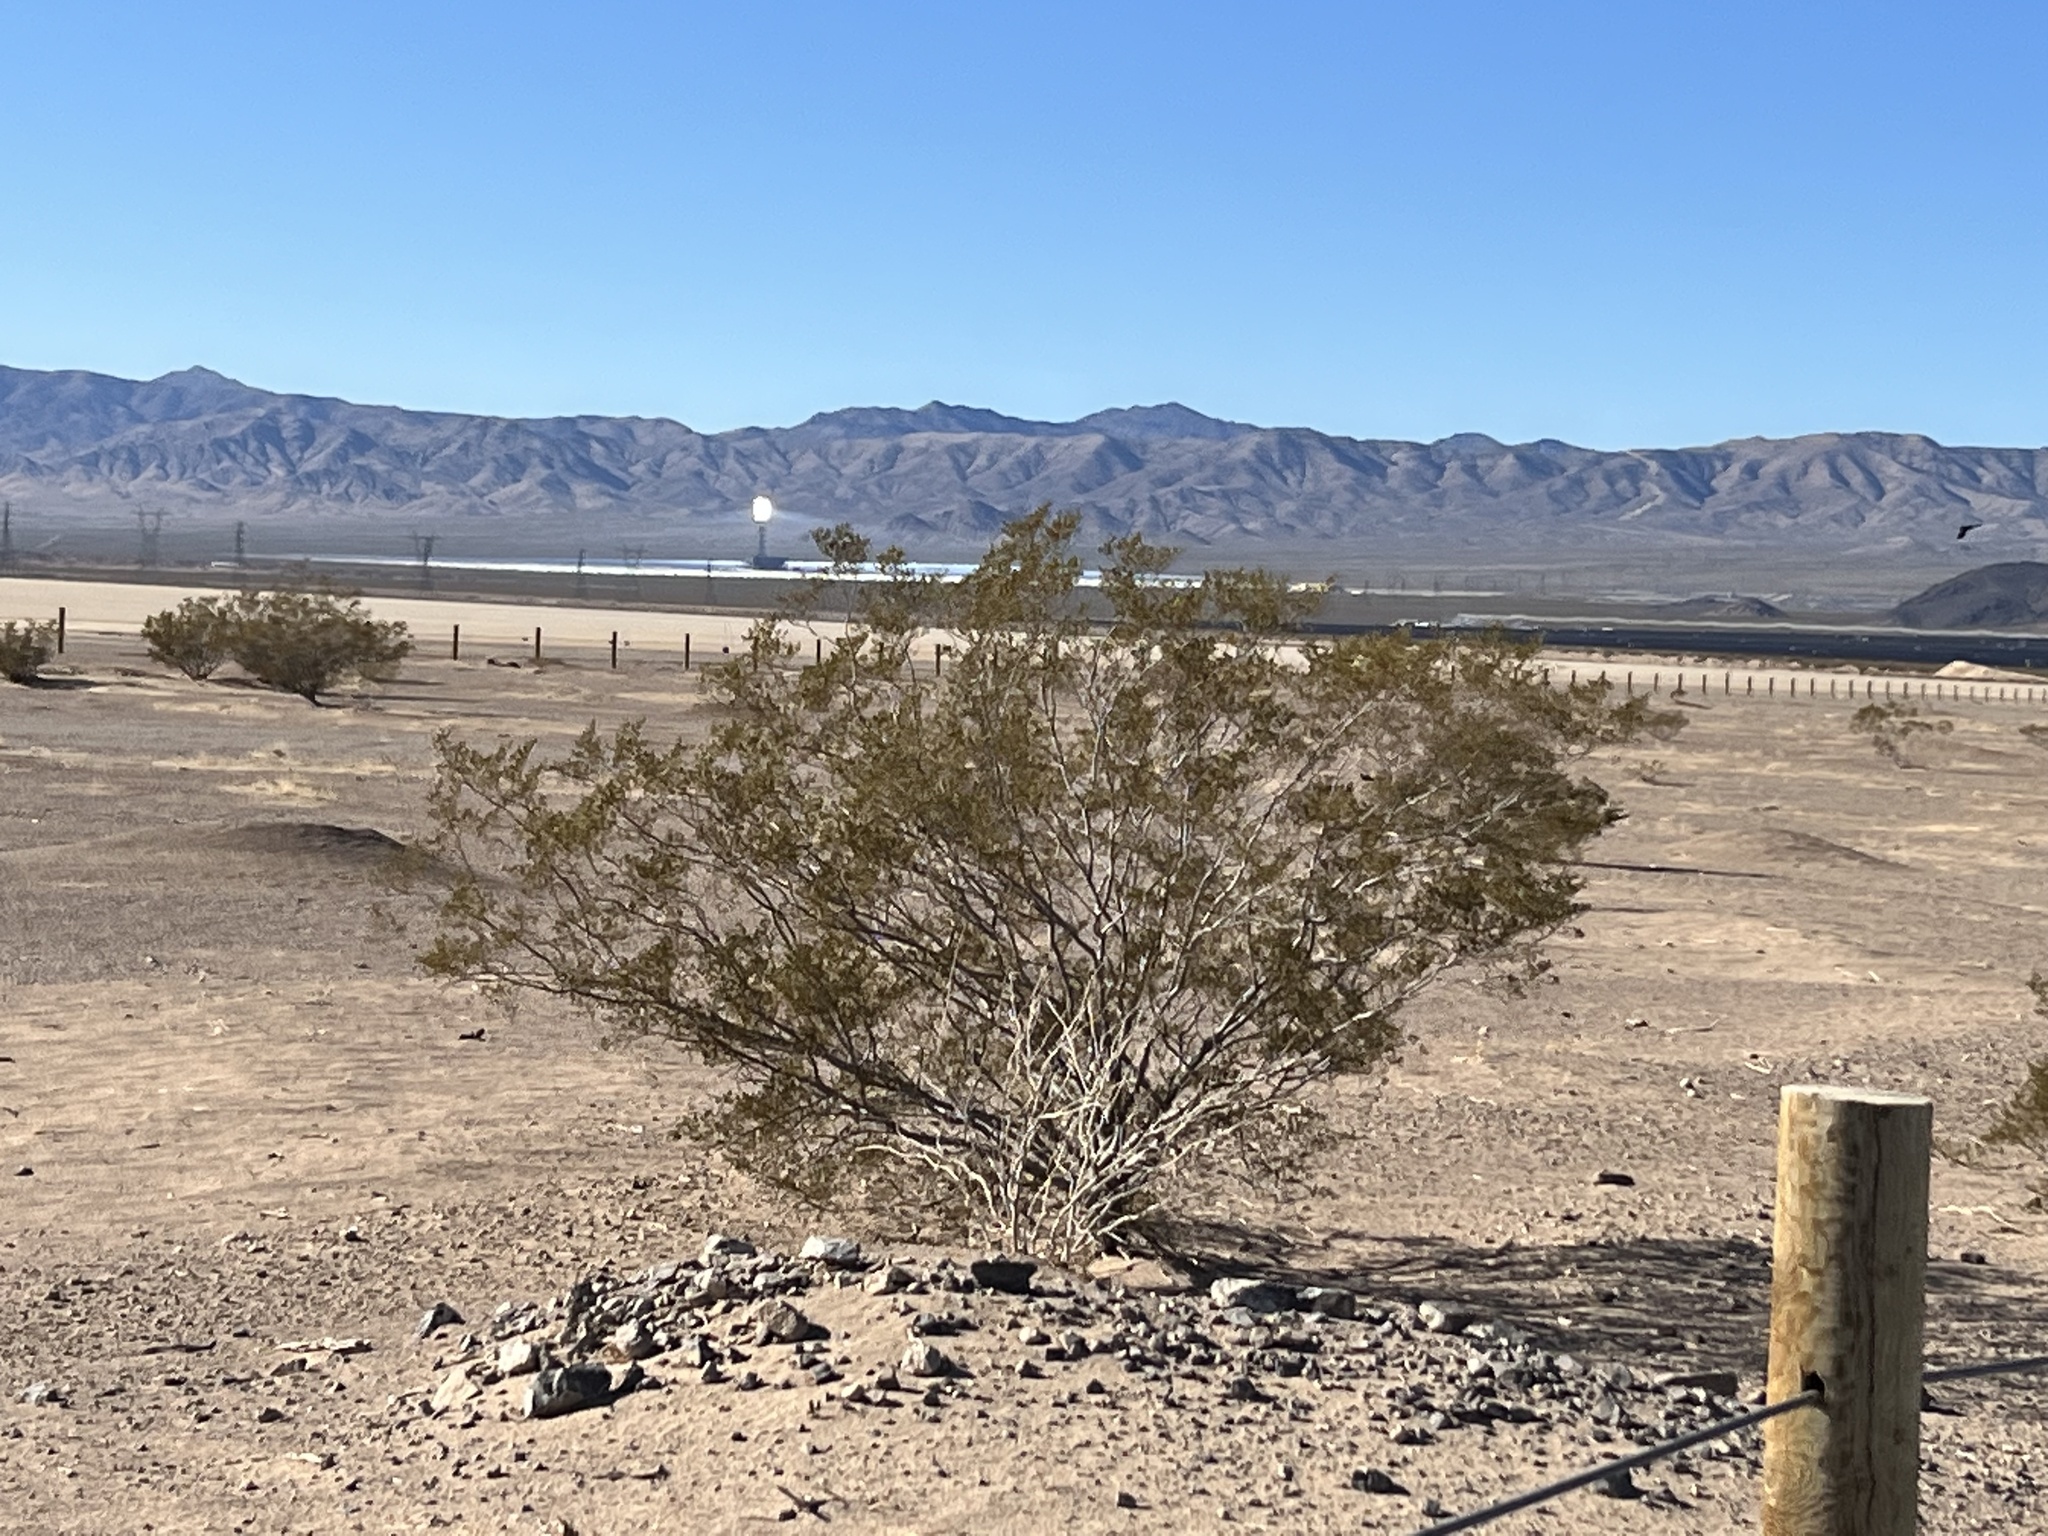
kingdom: Plantae
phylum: Tracheophyta
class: Magnoliopsida
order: Zygophyllales
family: Zygophyllaceae
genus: Larrea
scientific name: Larrea tridentata
